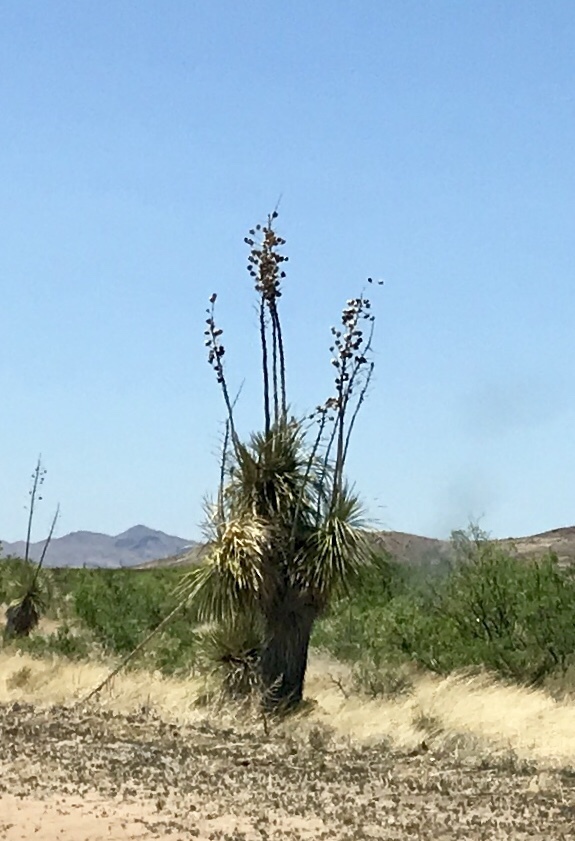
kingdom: Plantae
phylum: Tracheophyta
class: Liliopsida
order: Asparagales
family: Asparagaceae
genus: Yucca
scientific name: Yucca elata
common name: Palmella
